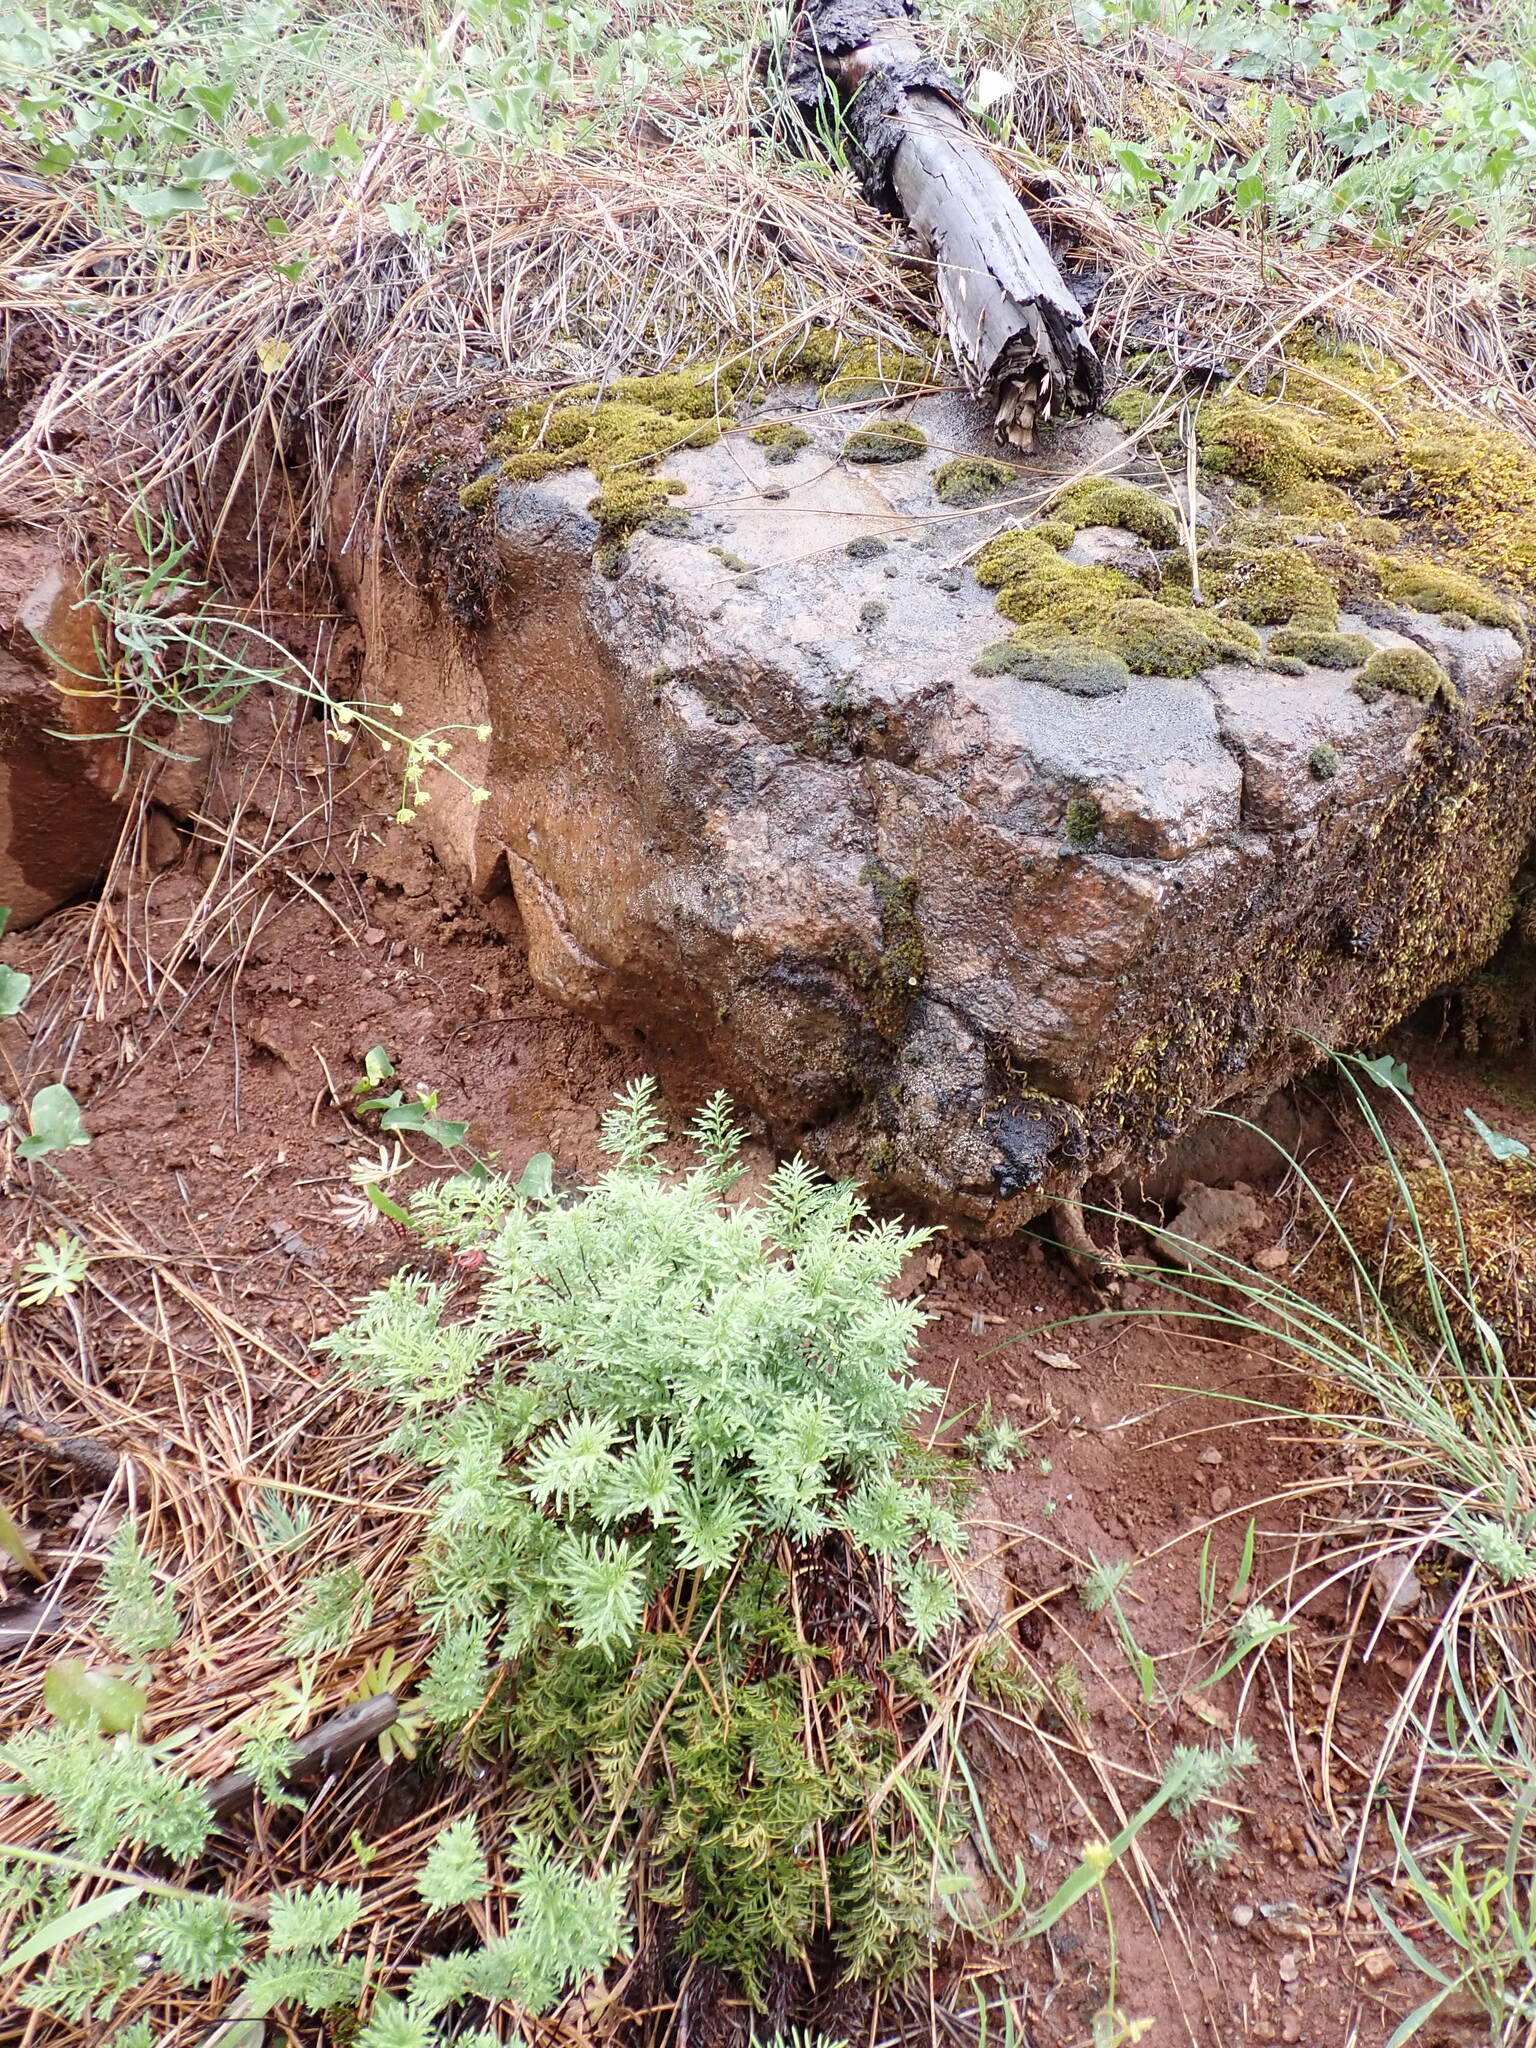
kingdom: Plantae
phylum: Tracheophyta
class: Polypodiopsida
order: Polypodiales
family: Pteridaceae
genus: Aspidotis
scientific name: Aspidotis densa
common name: Indian's dream
